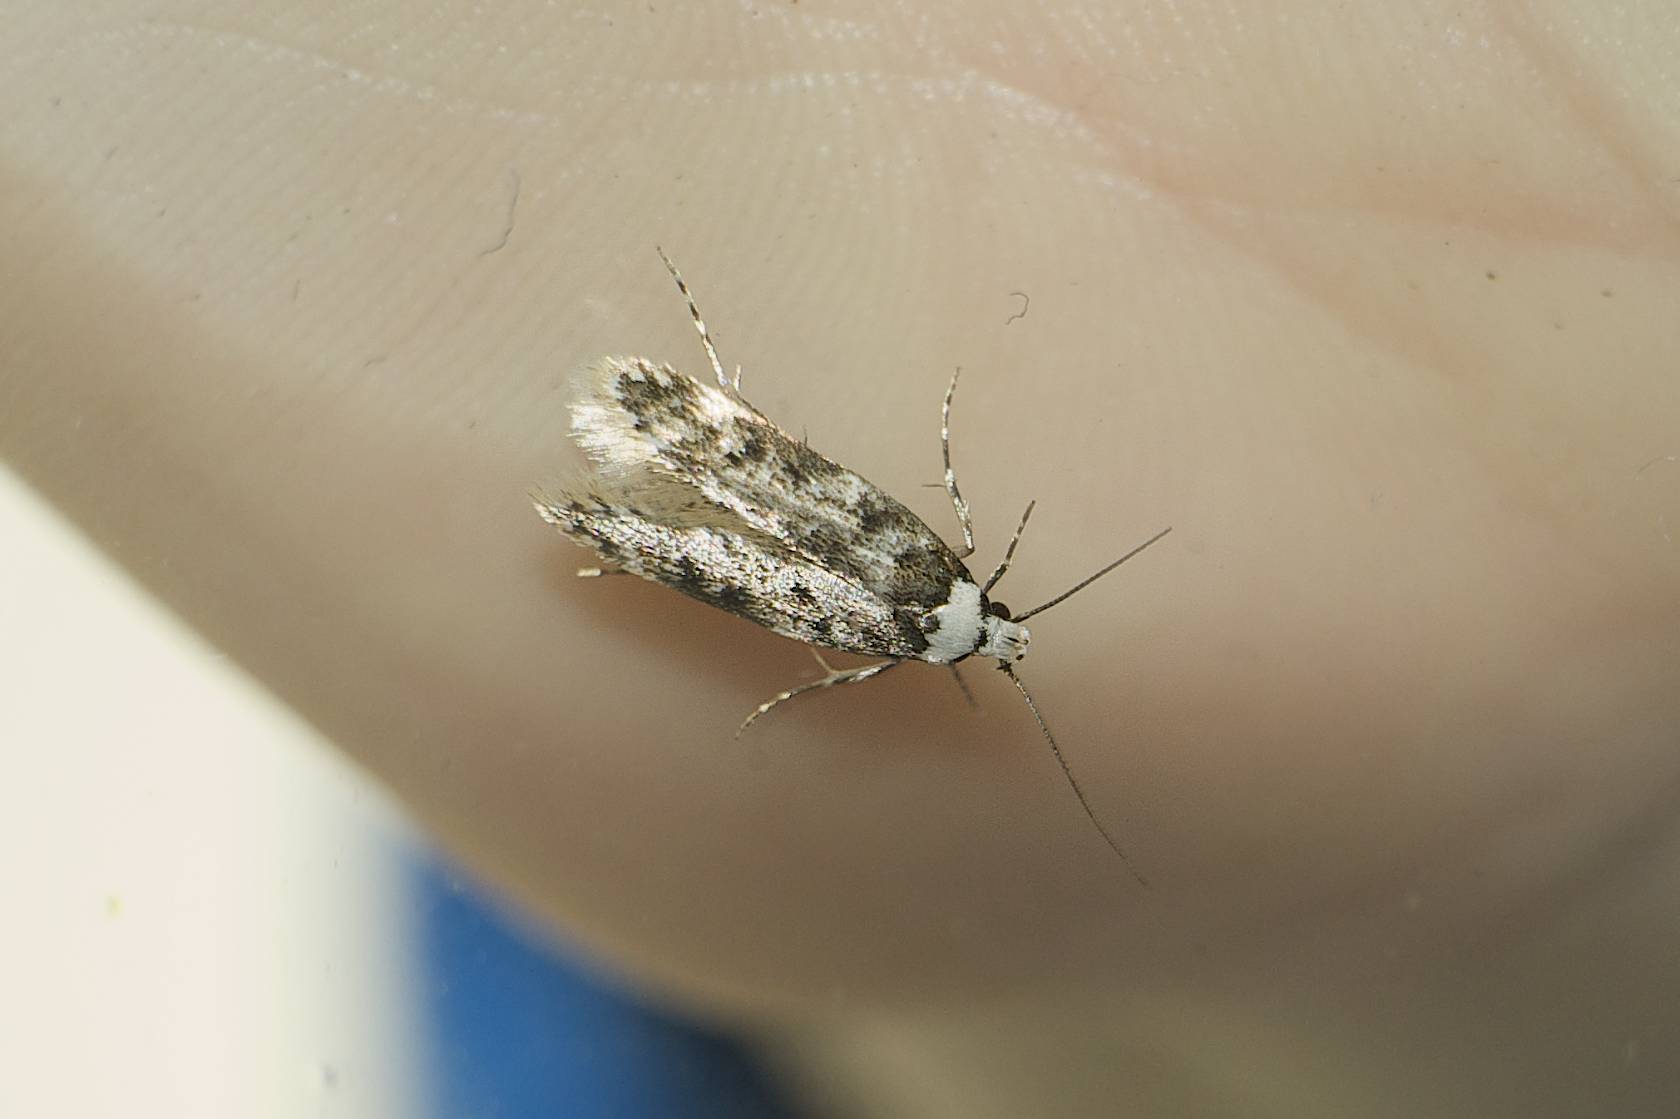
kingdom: Animalia
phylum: Arthropoda
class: Insecta
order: Lepidoptera
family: Oecophoridae
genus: Endrosis
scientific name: Endrosis sarcitrella
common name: White-shouldered house moth
